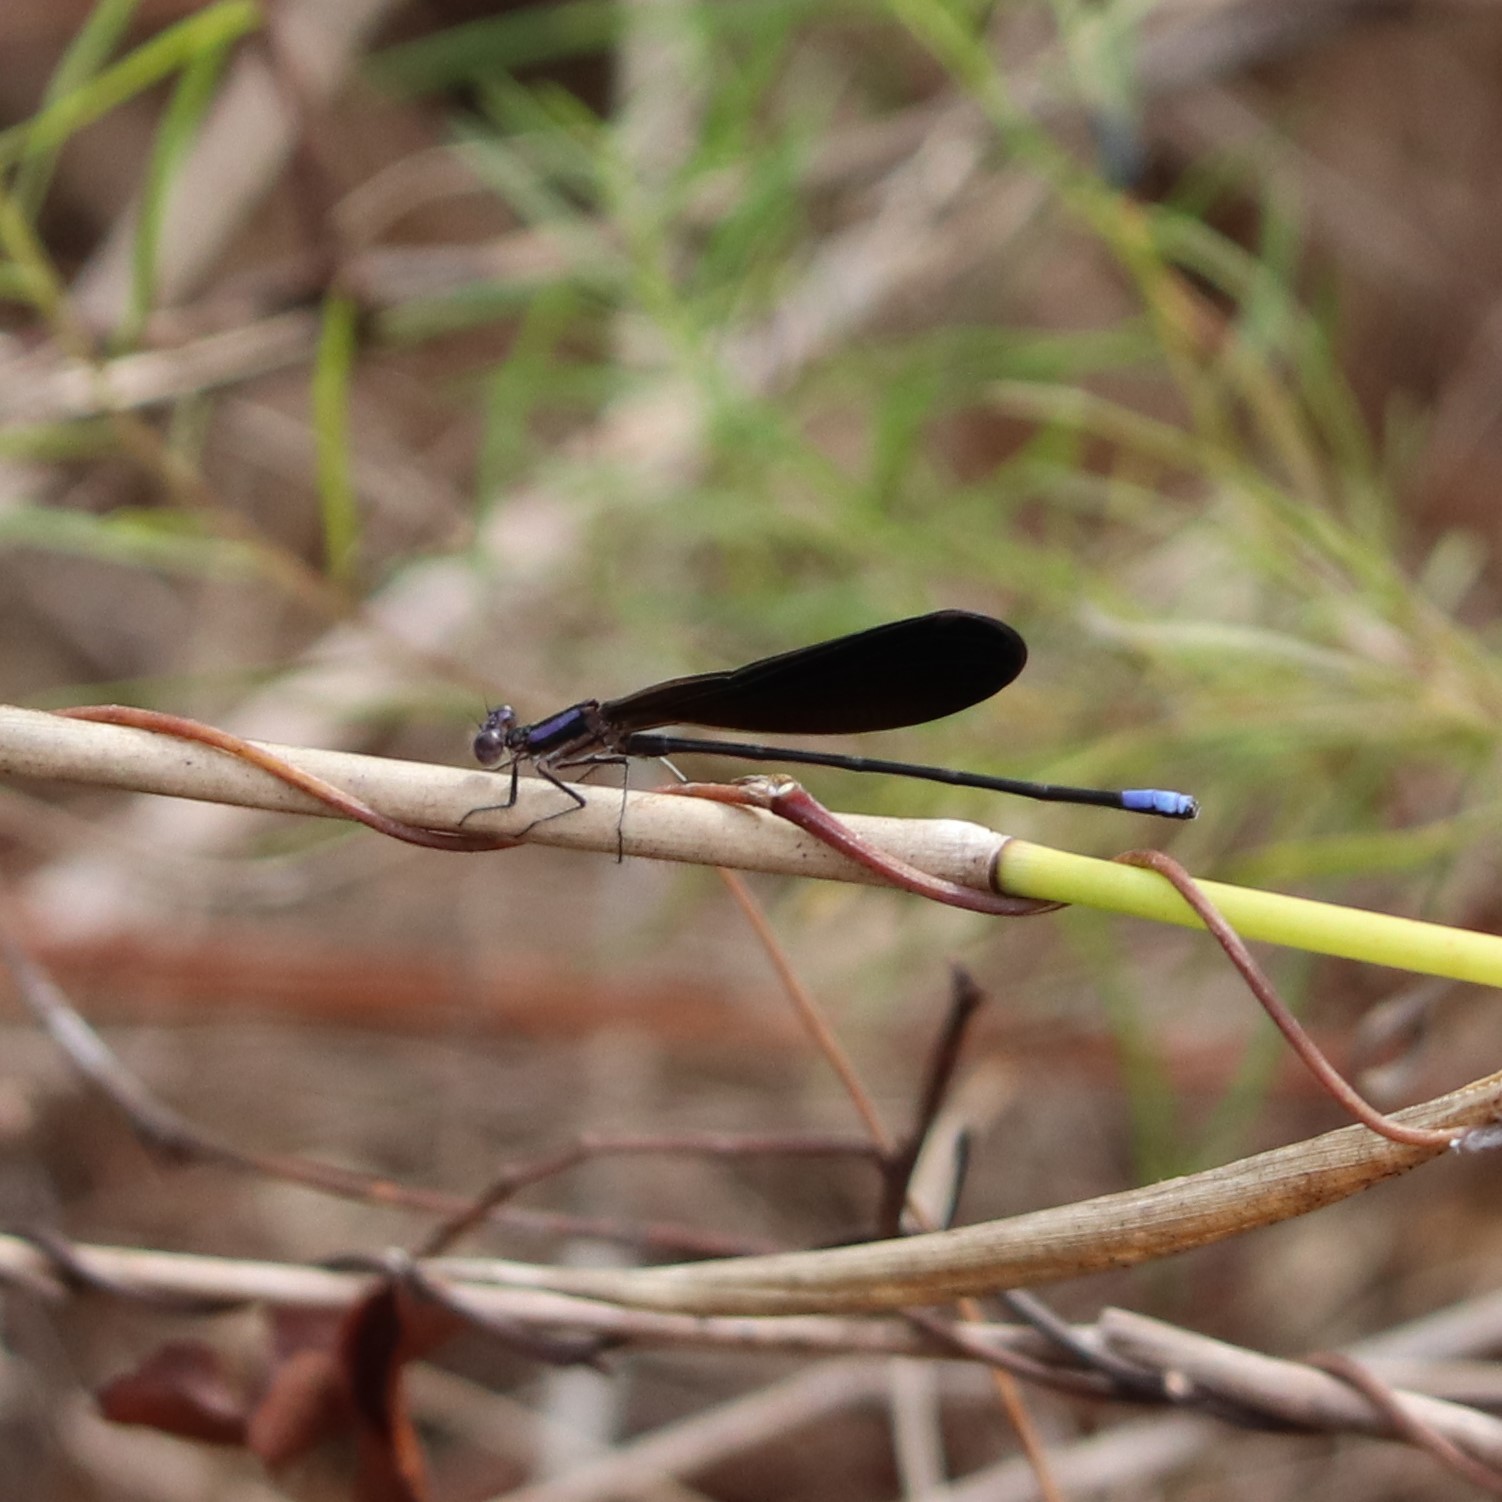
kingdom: Animalia
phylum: Arthropoda
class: Insecta
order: Odonata
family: Coenagrionidae
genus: Argia
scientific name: Argia fumipennis
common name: Variable dancer
